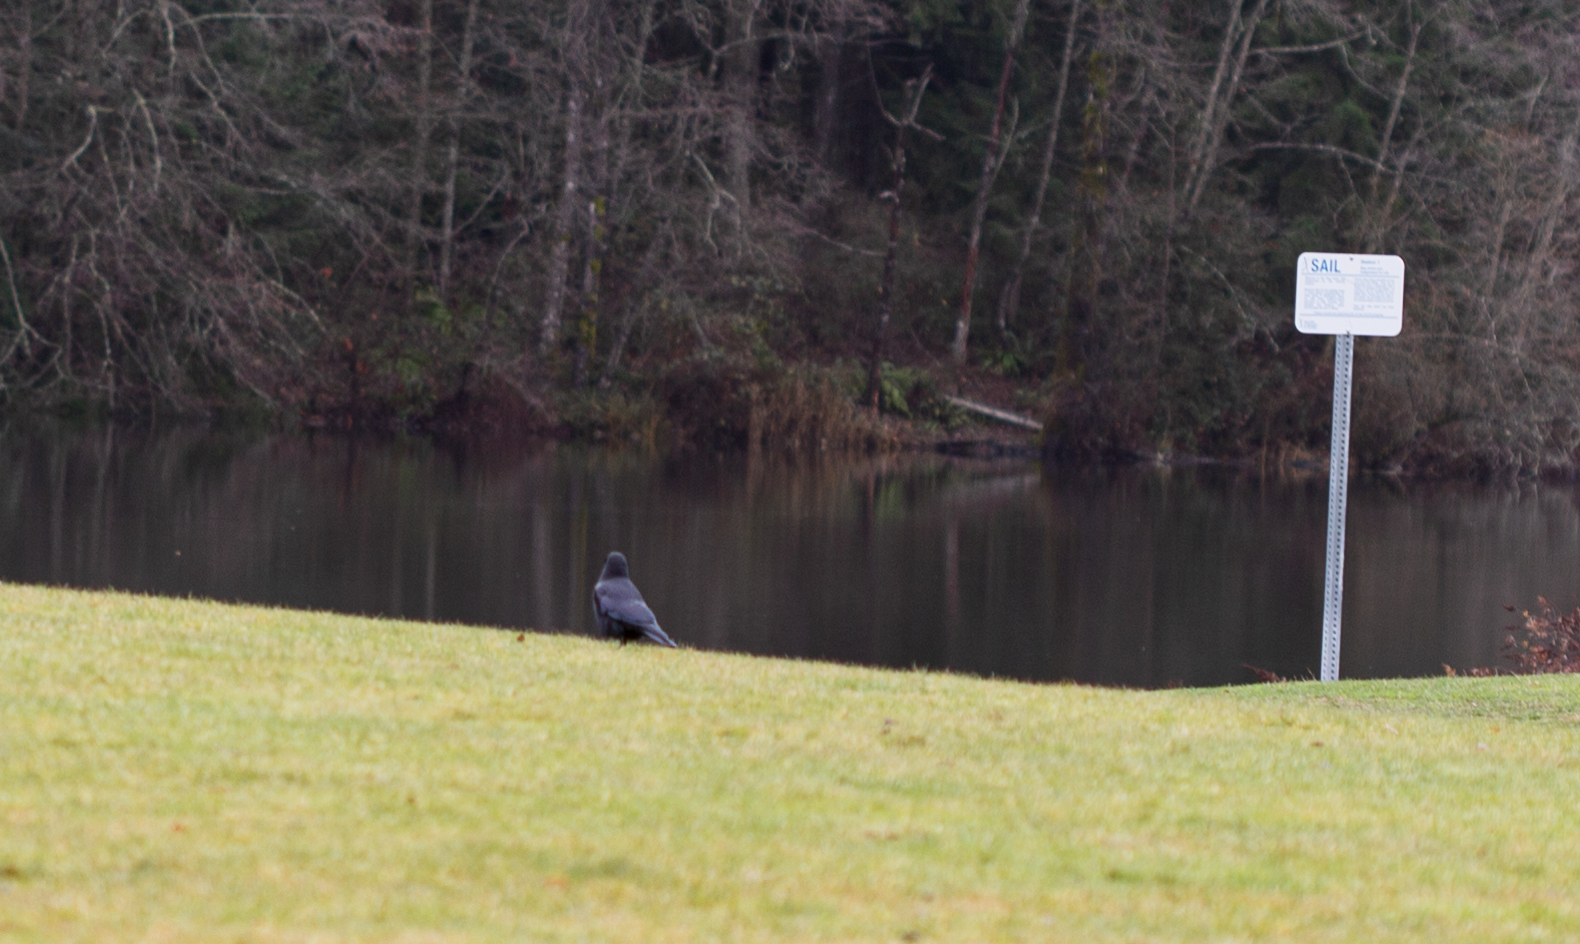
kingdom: Animalia
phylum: Chordata
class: Aves
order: Passeriformes
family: Corvidae
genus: Corvus
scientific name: Corvus brachyrhynchos
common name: American crow
